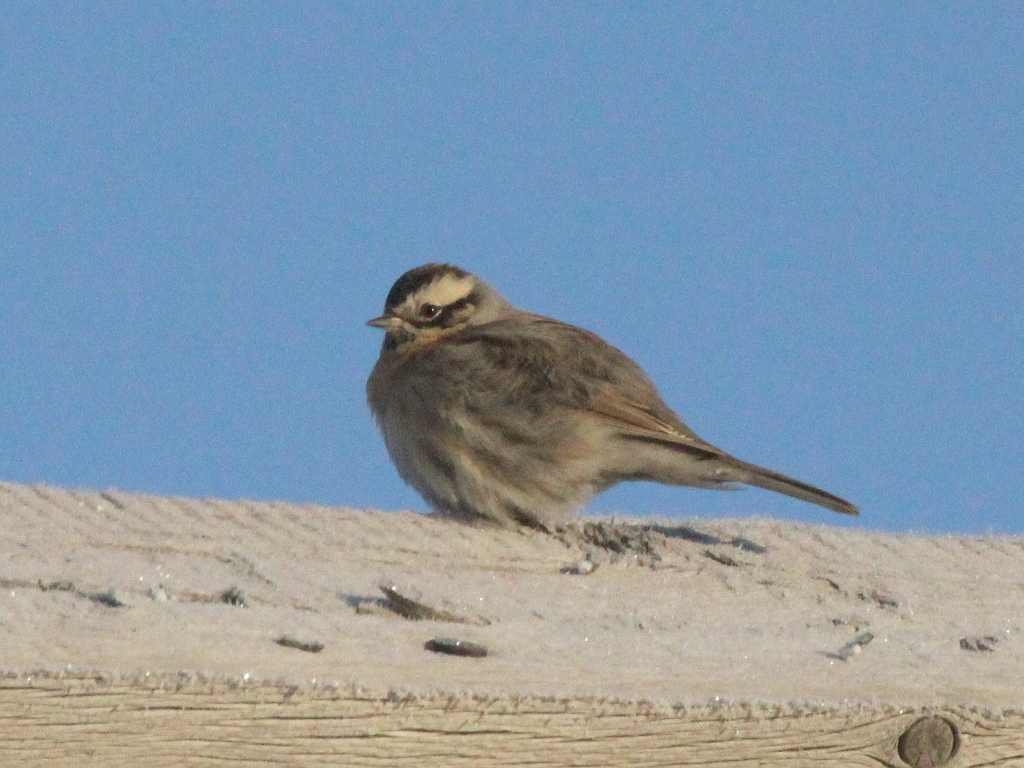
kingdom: Animalia
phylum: Chordata
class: Aves
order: Passeriformes
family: Prunellidae
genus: Prunella
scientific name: Prunella atrogularis
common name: Black-throated accentor
